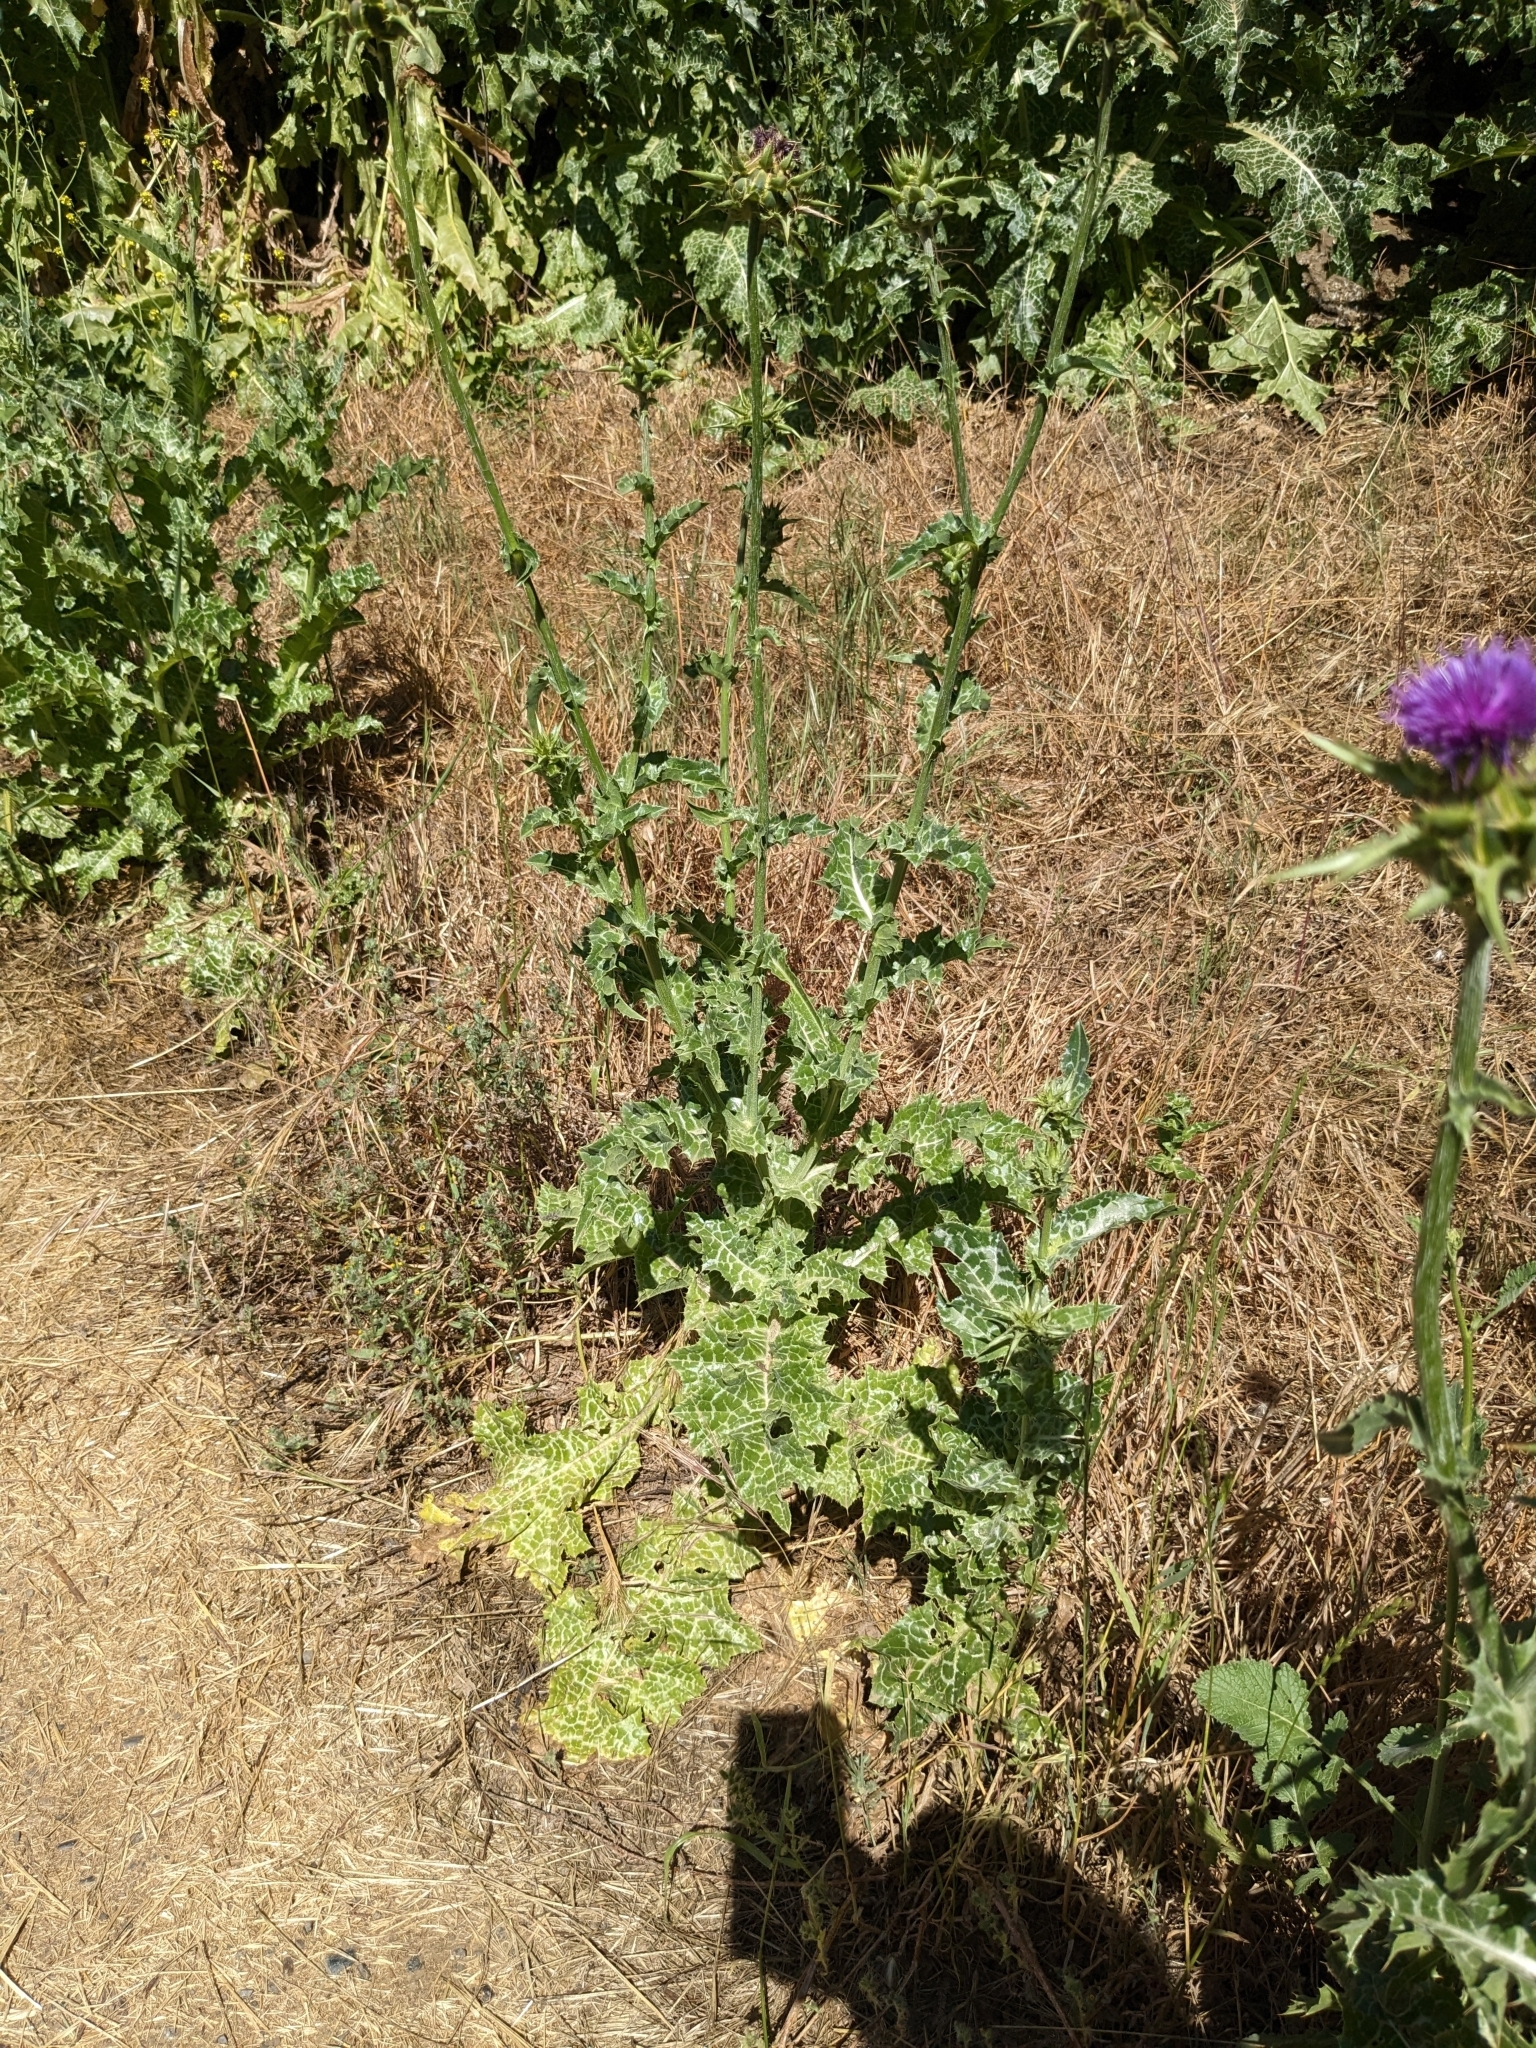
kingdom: Plantae
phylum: Tracheophyta
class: Magnoliopsida
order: Asterales
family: Asteraceae
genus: Silybum
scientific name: Silybum marianum
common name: Milk thistle
